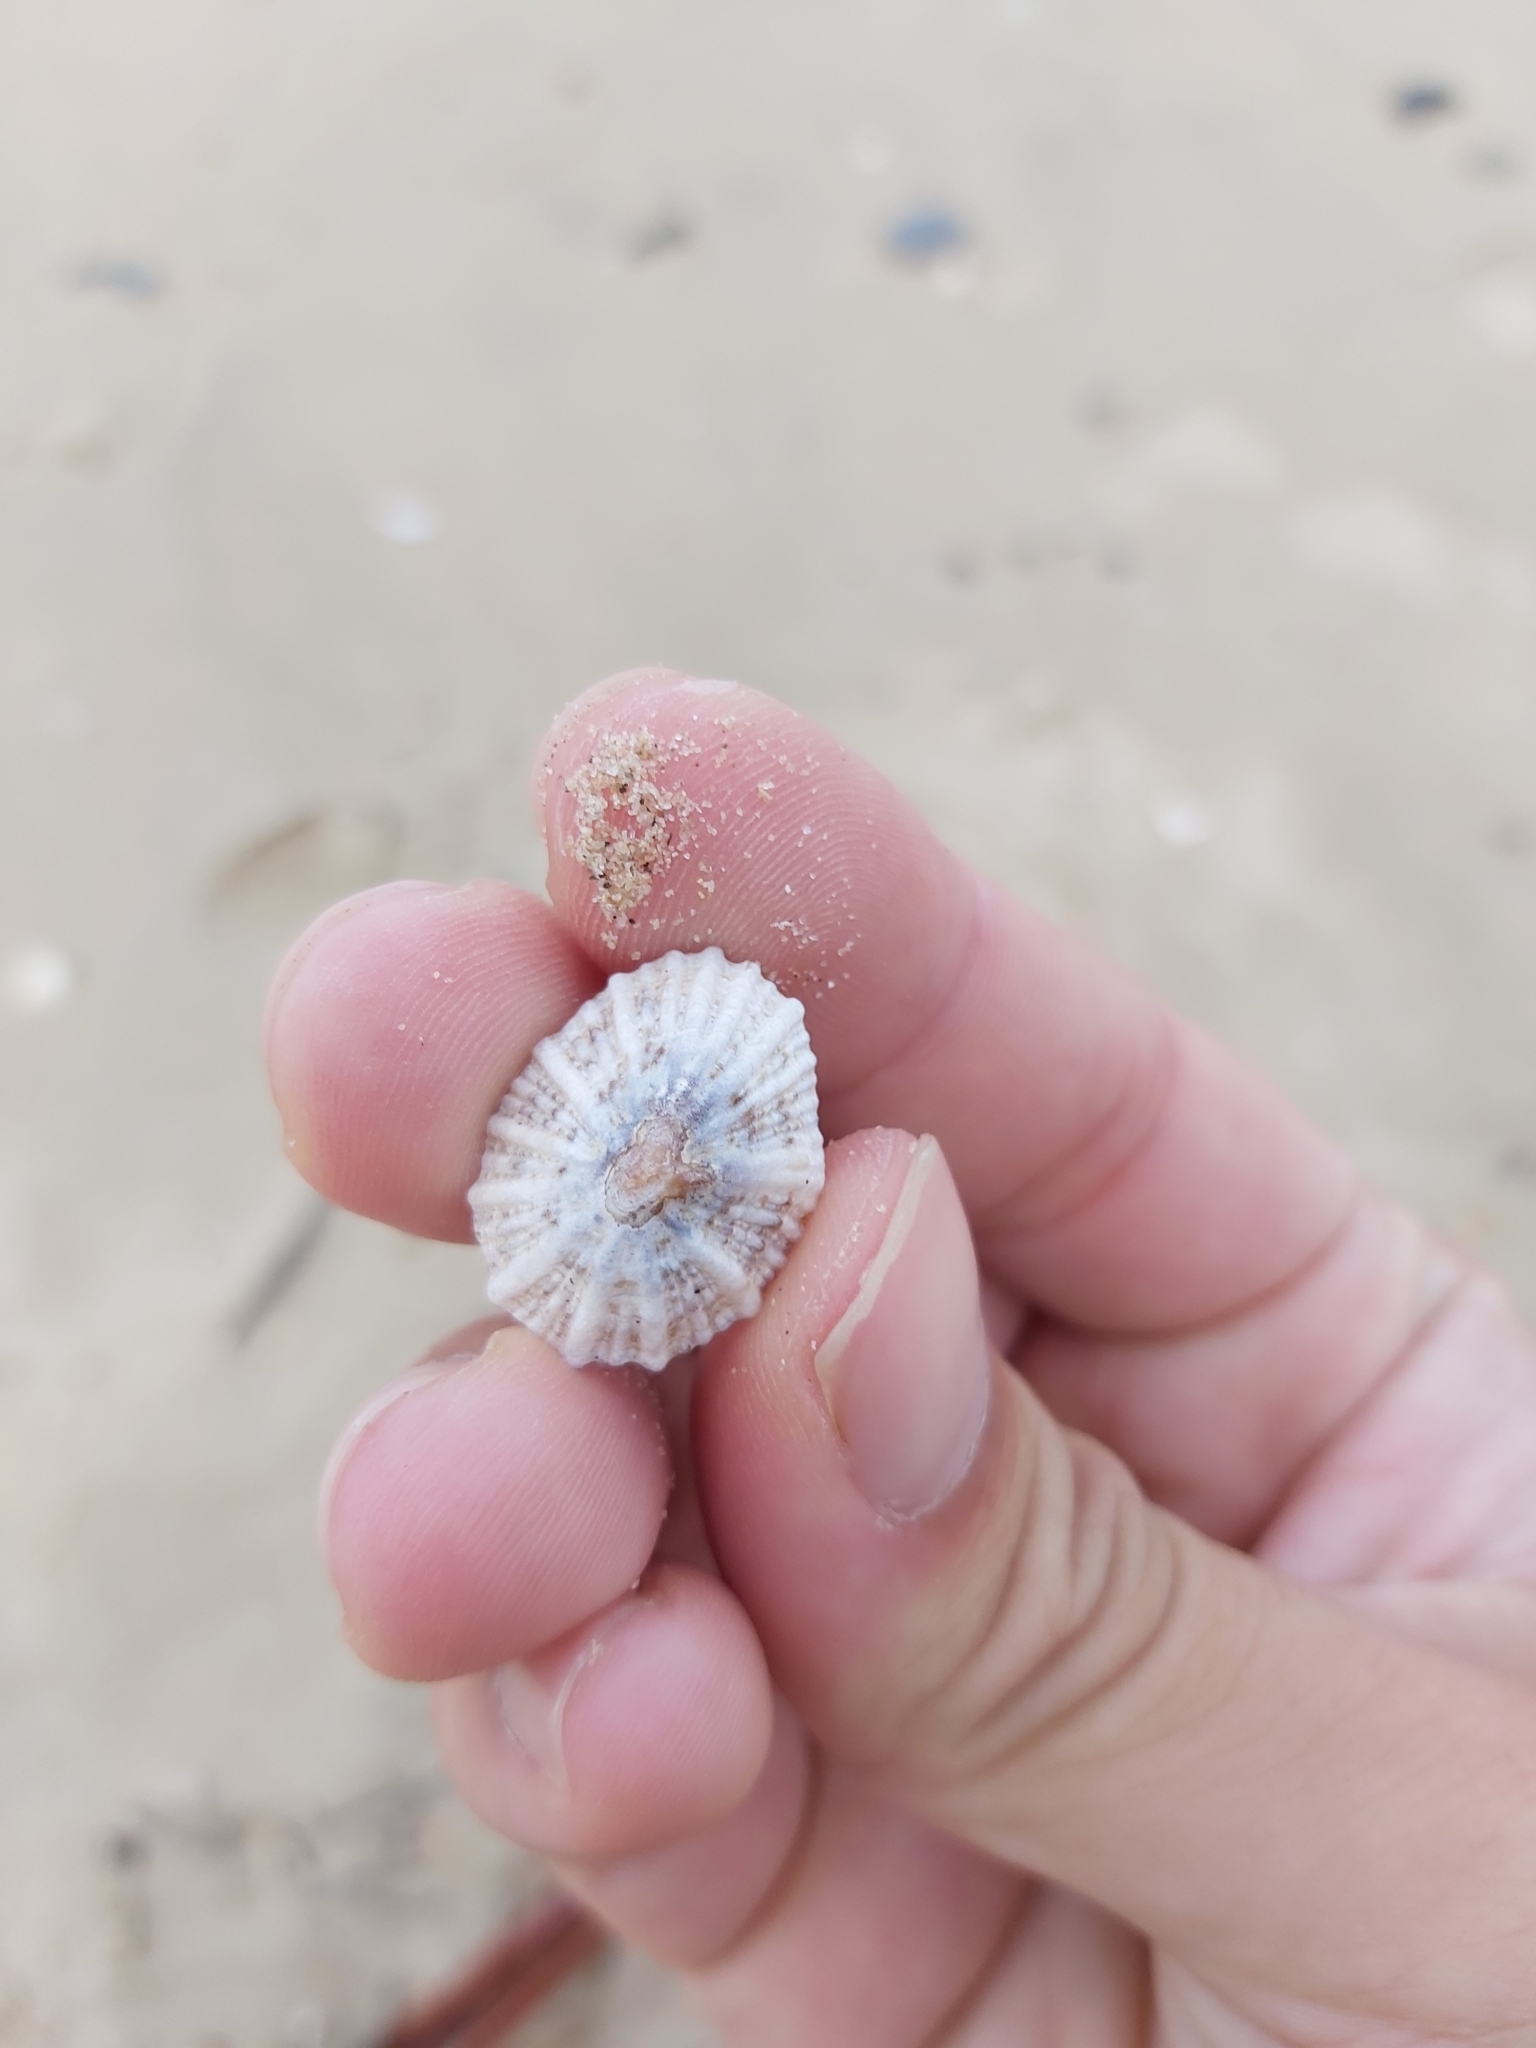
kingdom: Animalia
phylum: Mollusca
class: Gastropoda
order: Siphonariida
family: Siphonariidae
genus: Siphonaria
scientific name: Siphonaria laciniosa
